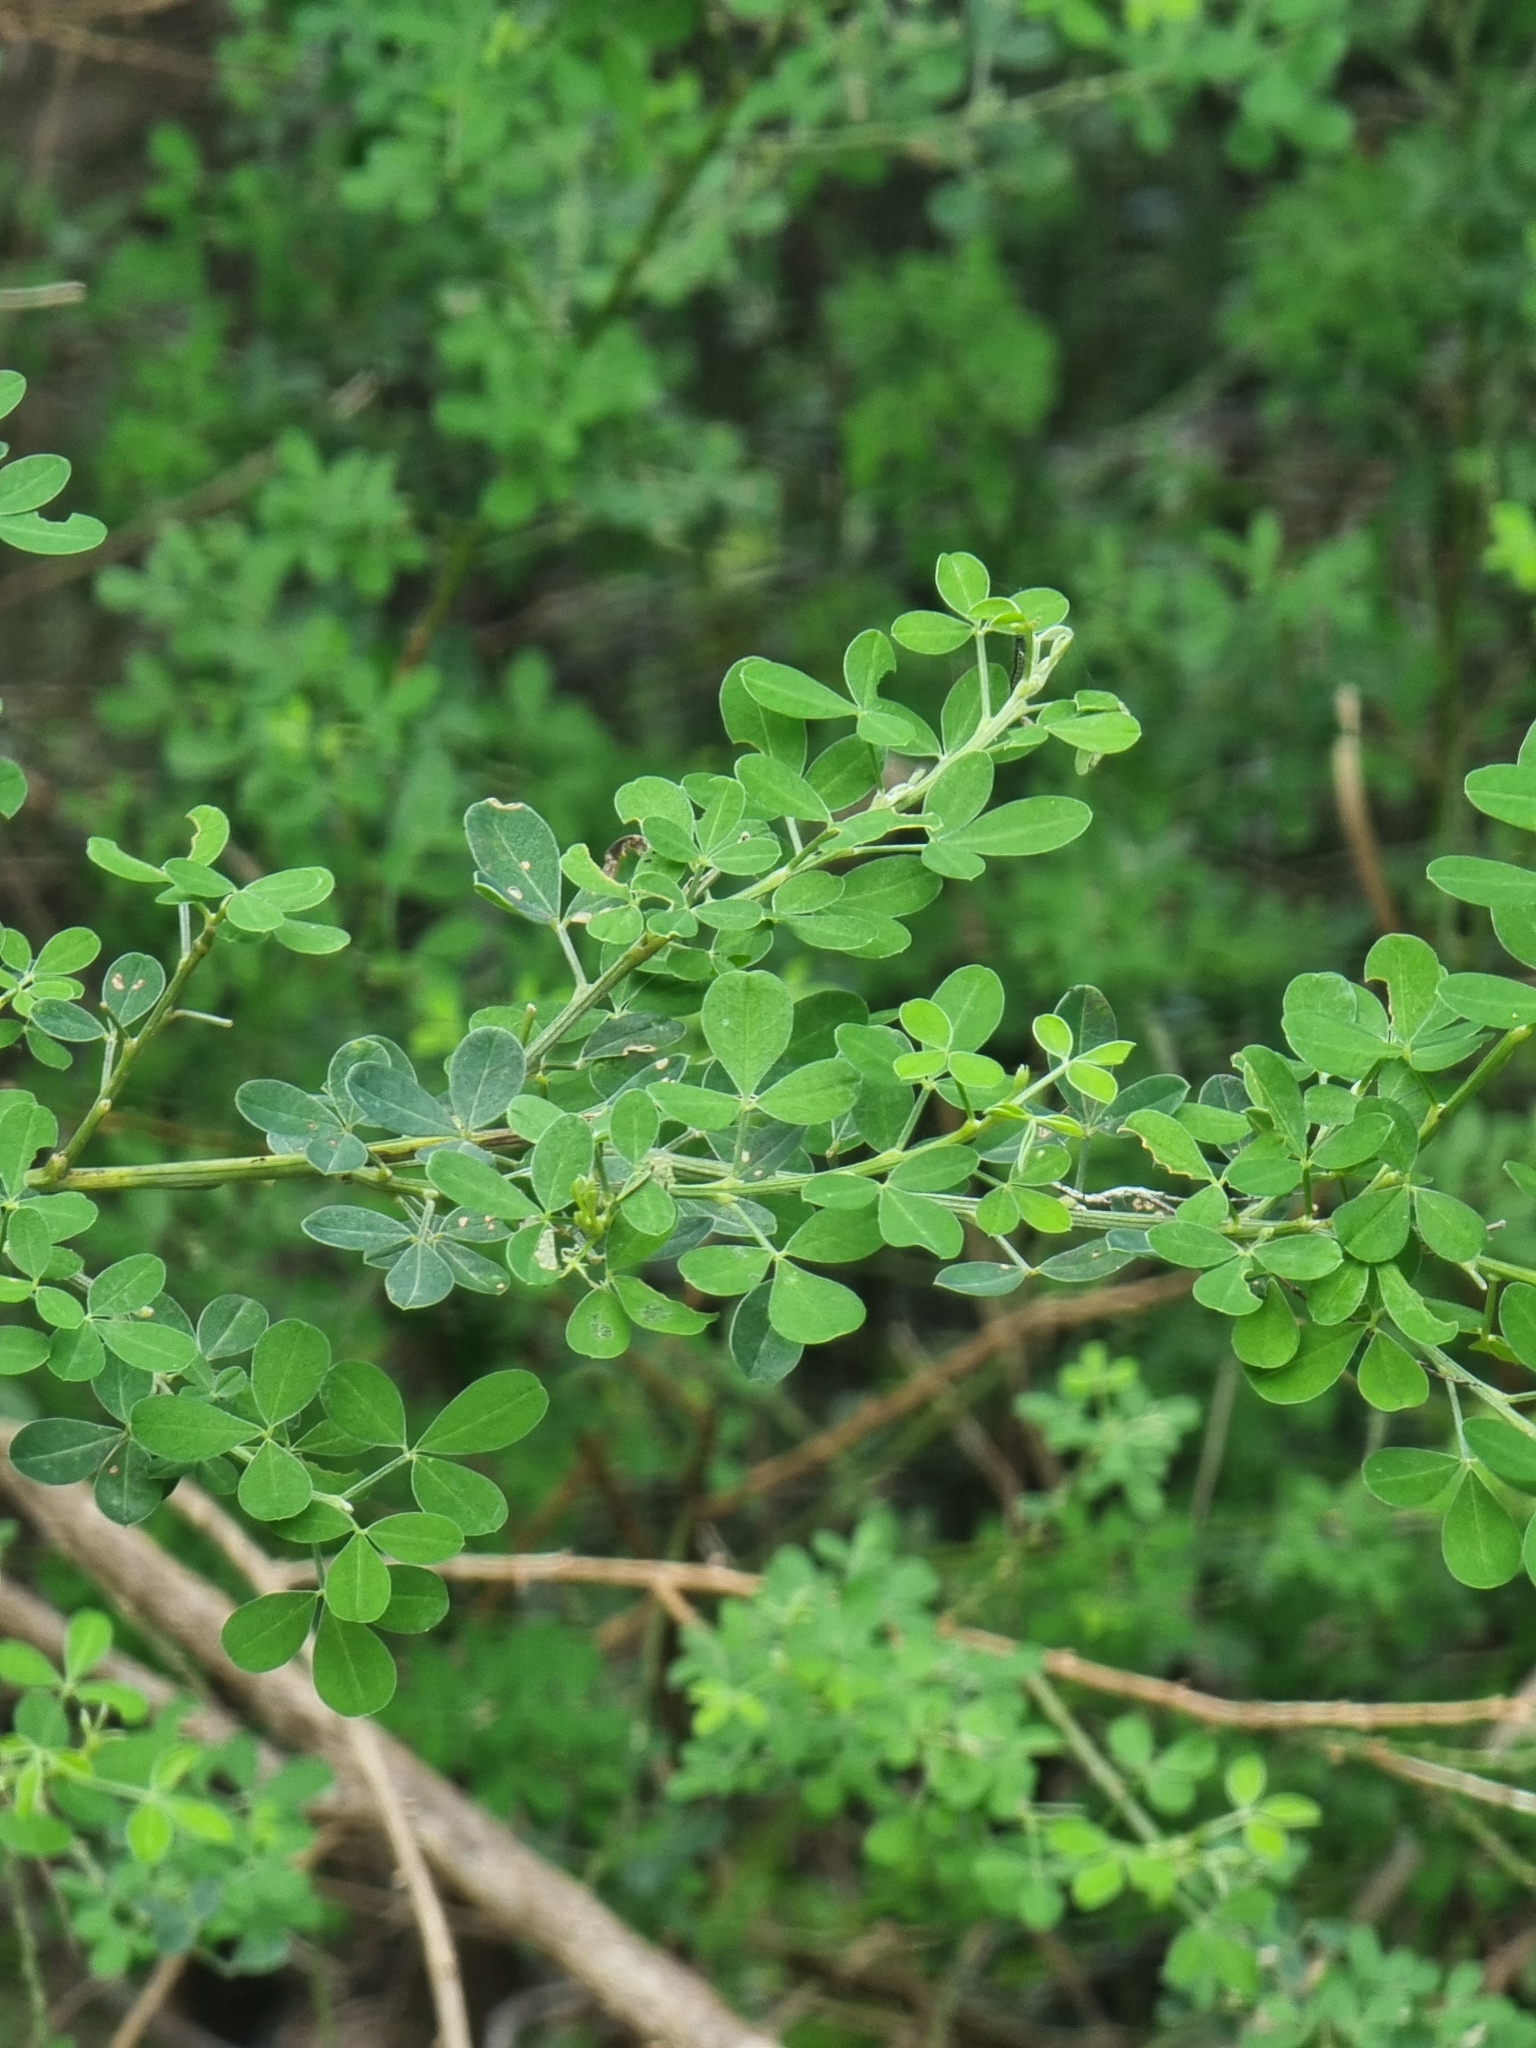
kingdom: Plantae
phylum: Tracheophyta
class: Magnoliopsida
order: Fabales
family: Fabaceae
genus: Genista
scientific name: Genista maderensis
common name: Madeira dyer's greenweed
